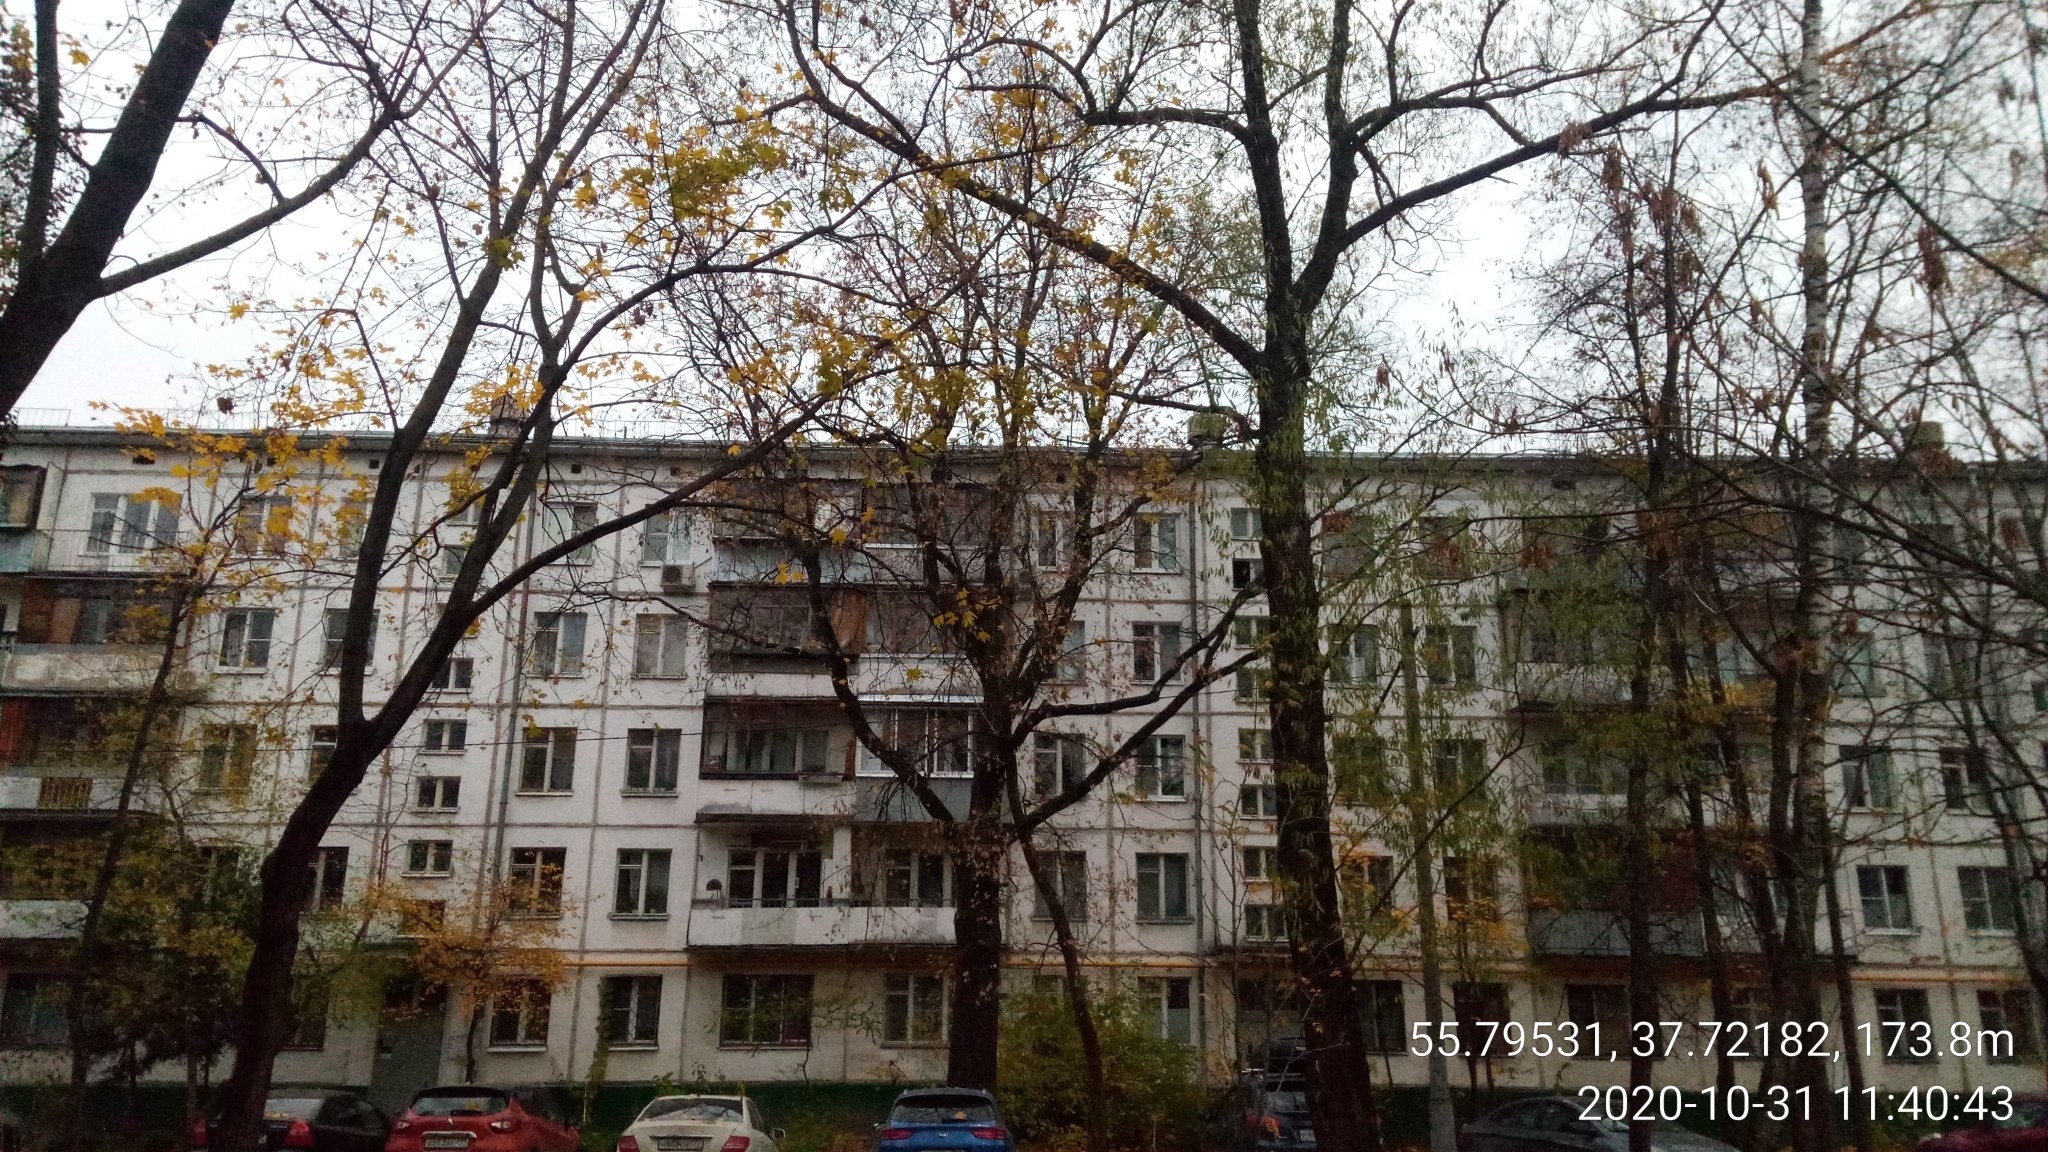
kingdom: Plantae
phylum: Tracheophyta
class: Magnoliopsida
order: Fagales
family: Fagaceae
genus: Quercus
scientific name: Quercus robur
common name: Pedunculate oak
